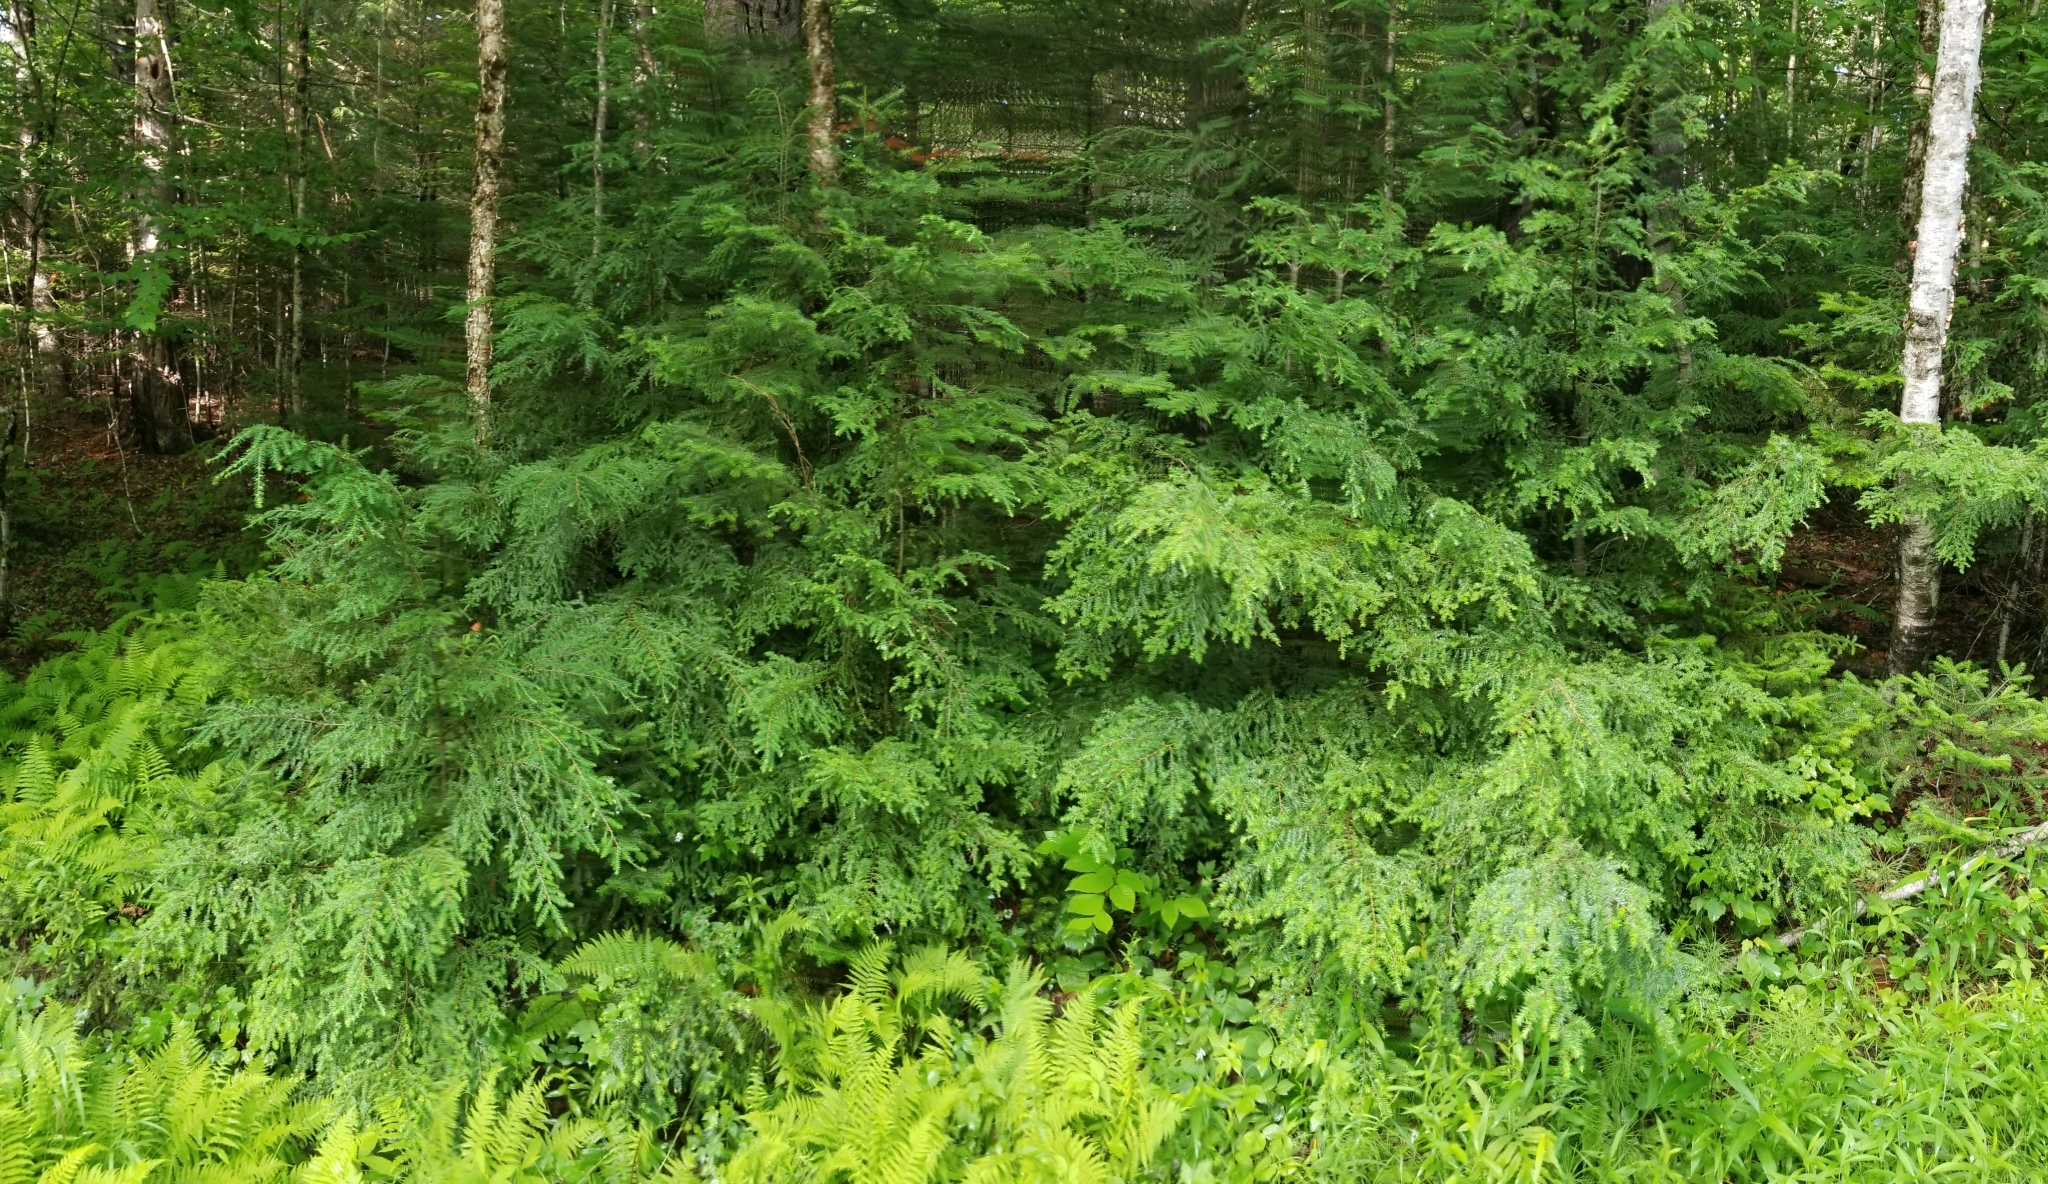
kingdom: Plantae
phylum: Tracheophyta
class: Pinopsida
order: Pinales
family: Pinaceae
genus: Tsuga
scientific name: Tsuga canadensis
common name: Eastern hemlock
